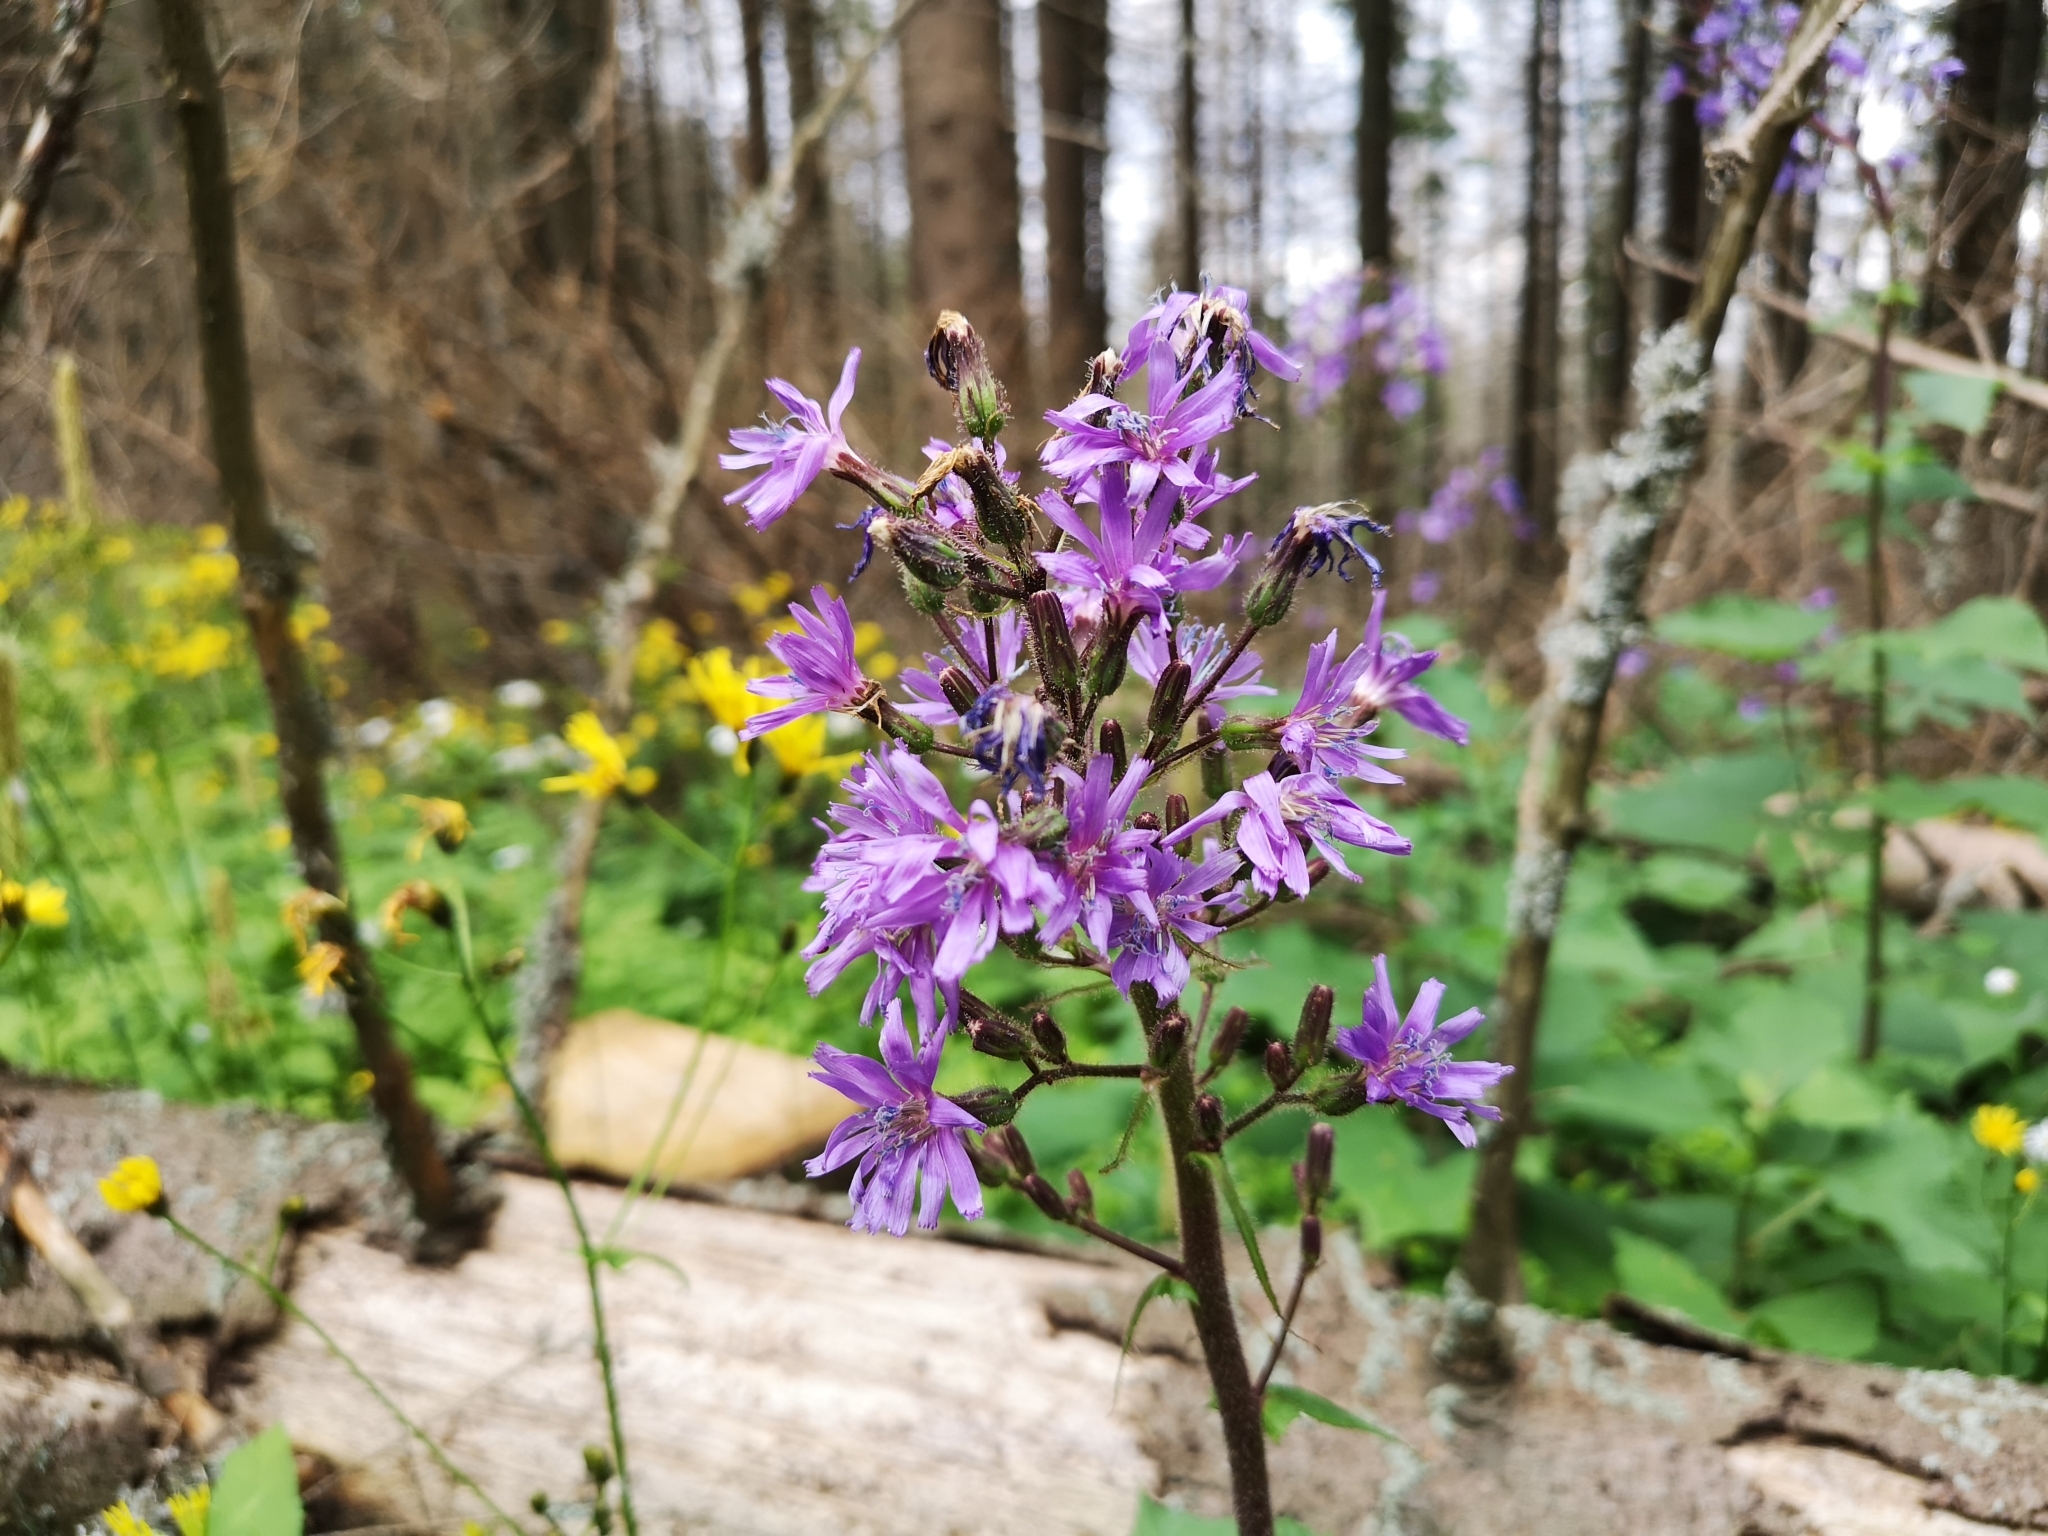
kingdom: Plantae
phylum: Tracheophyta
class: Magnoliopsida
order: Asterales
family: Asteraceae
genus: Cicerbita
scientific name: Cicerbita alpina
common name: Alpine blue-sow-thistle
